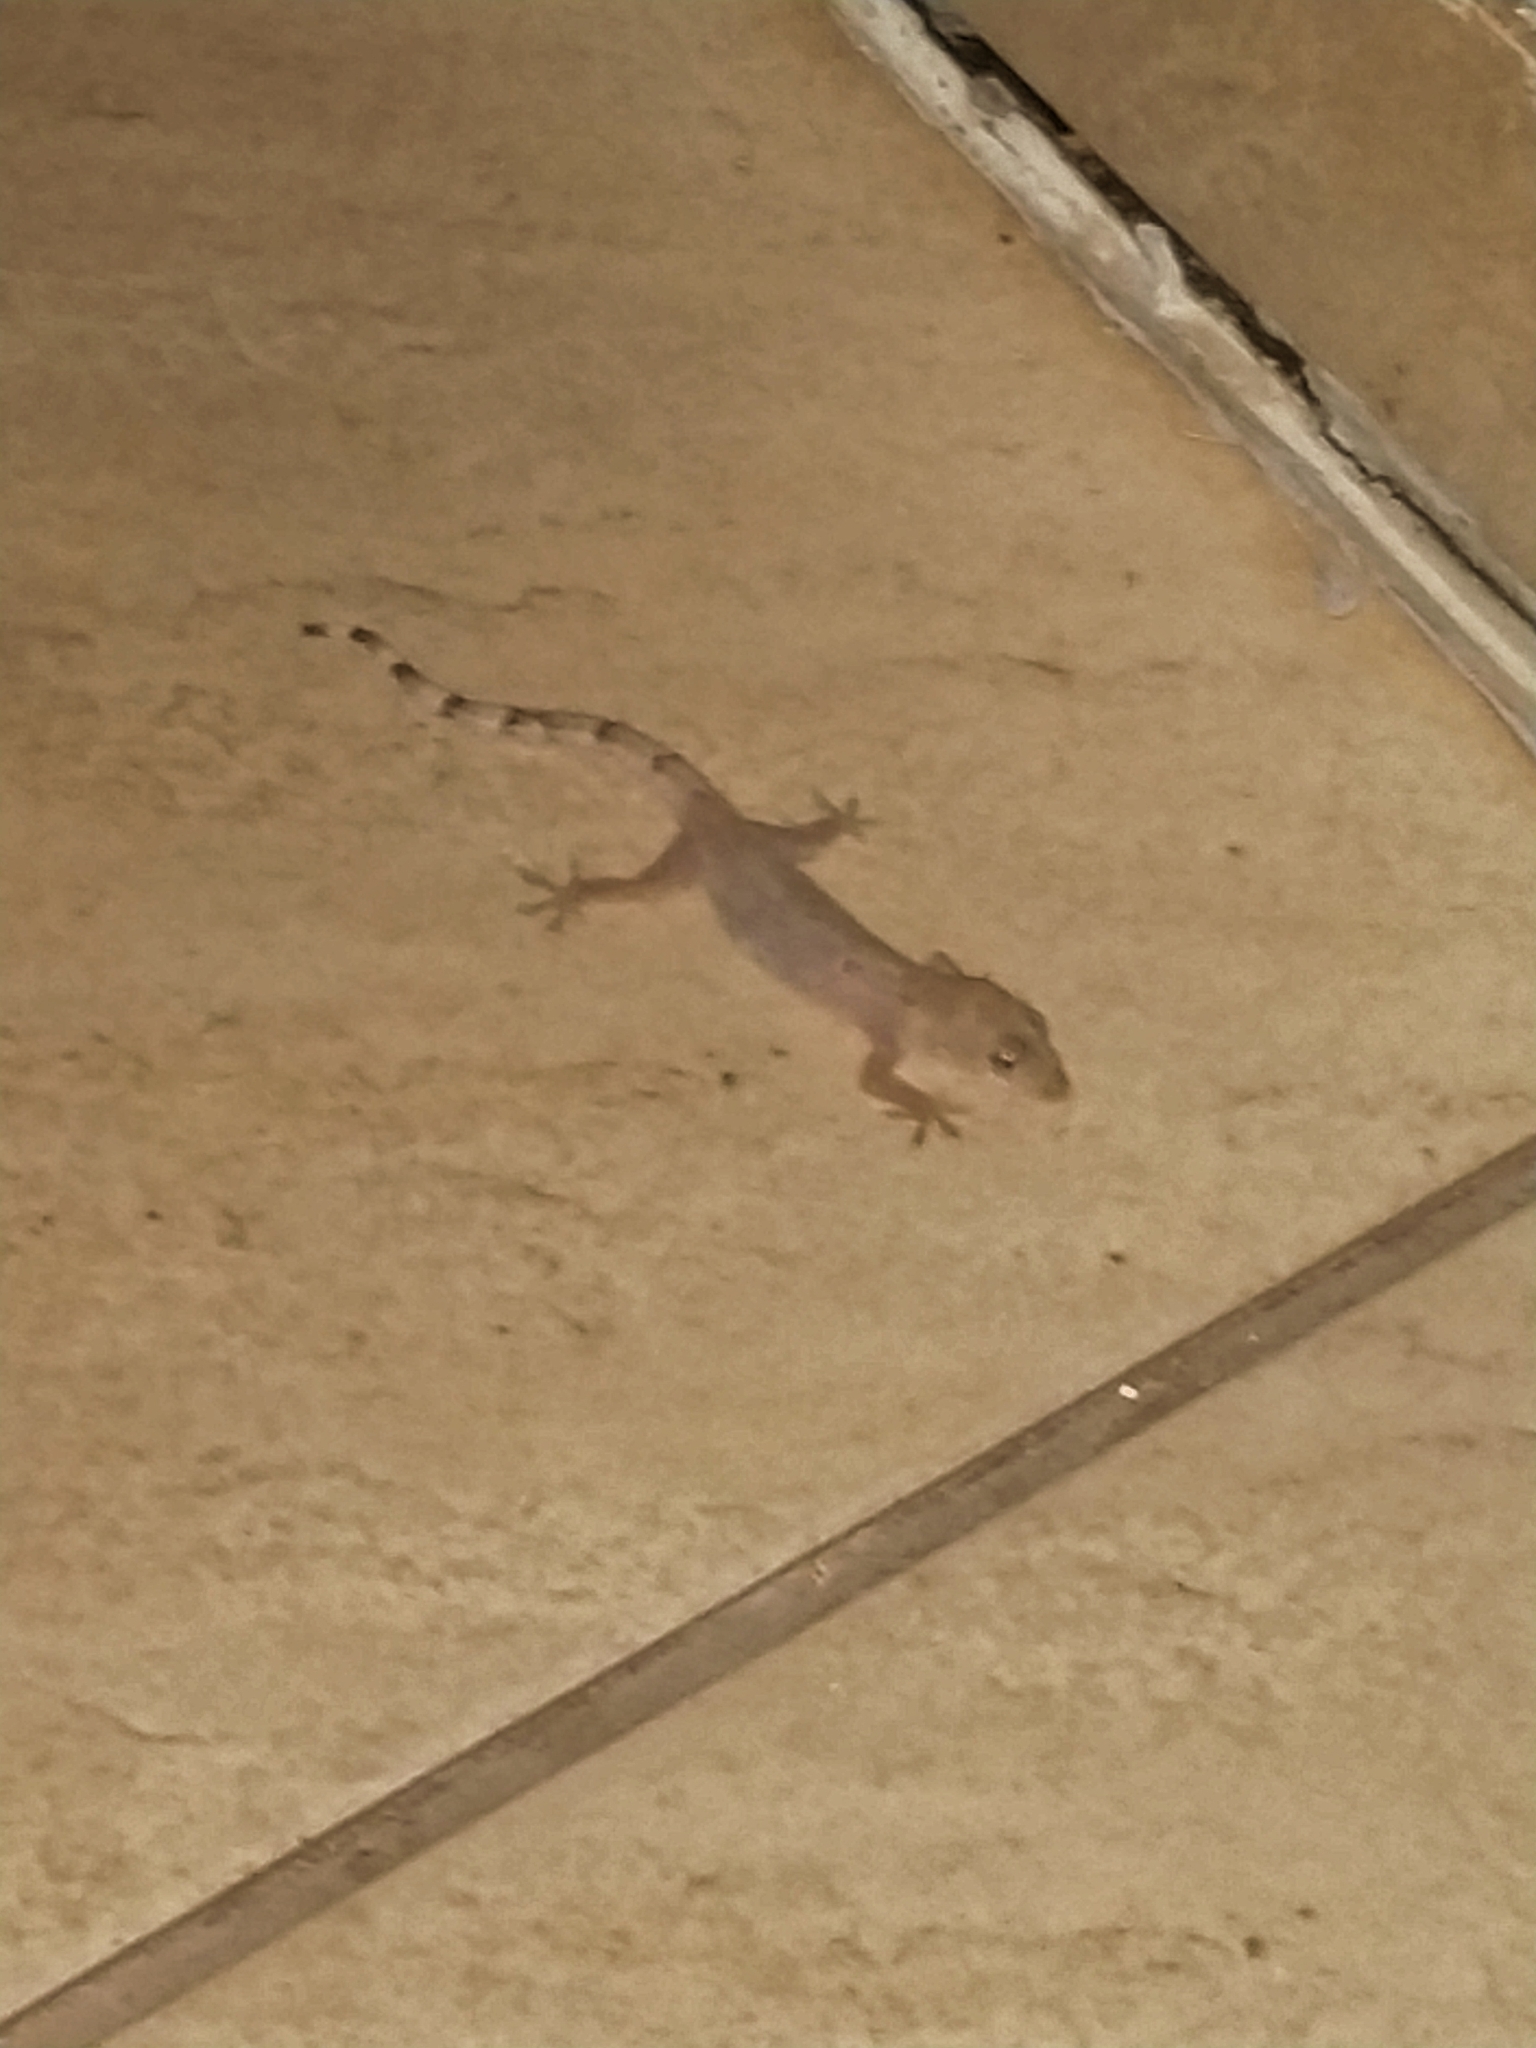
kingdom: Animalia
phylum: Chordata
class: Squamata
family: Gekkonidae
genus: Hemidactylus
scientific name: Hemidactylus mabouia
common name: House gecko
